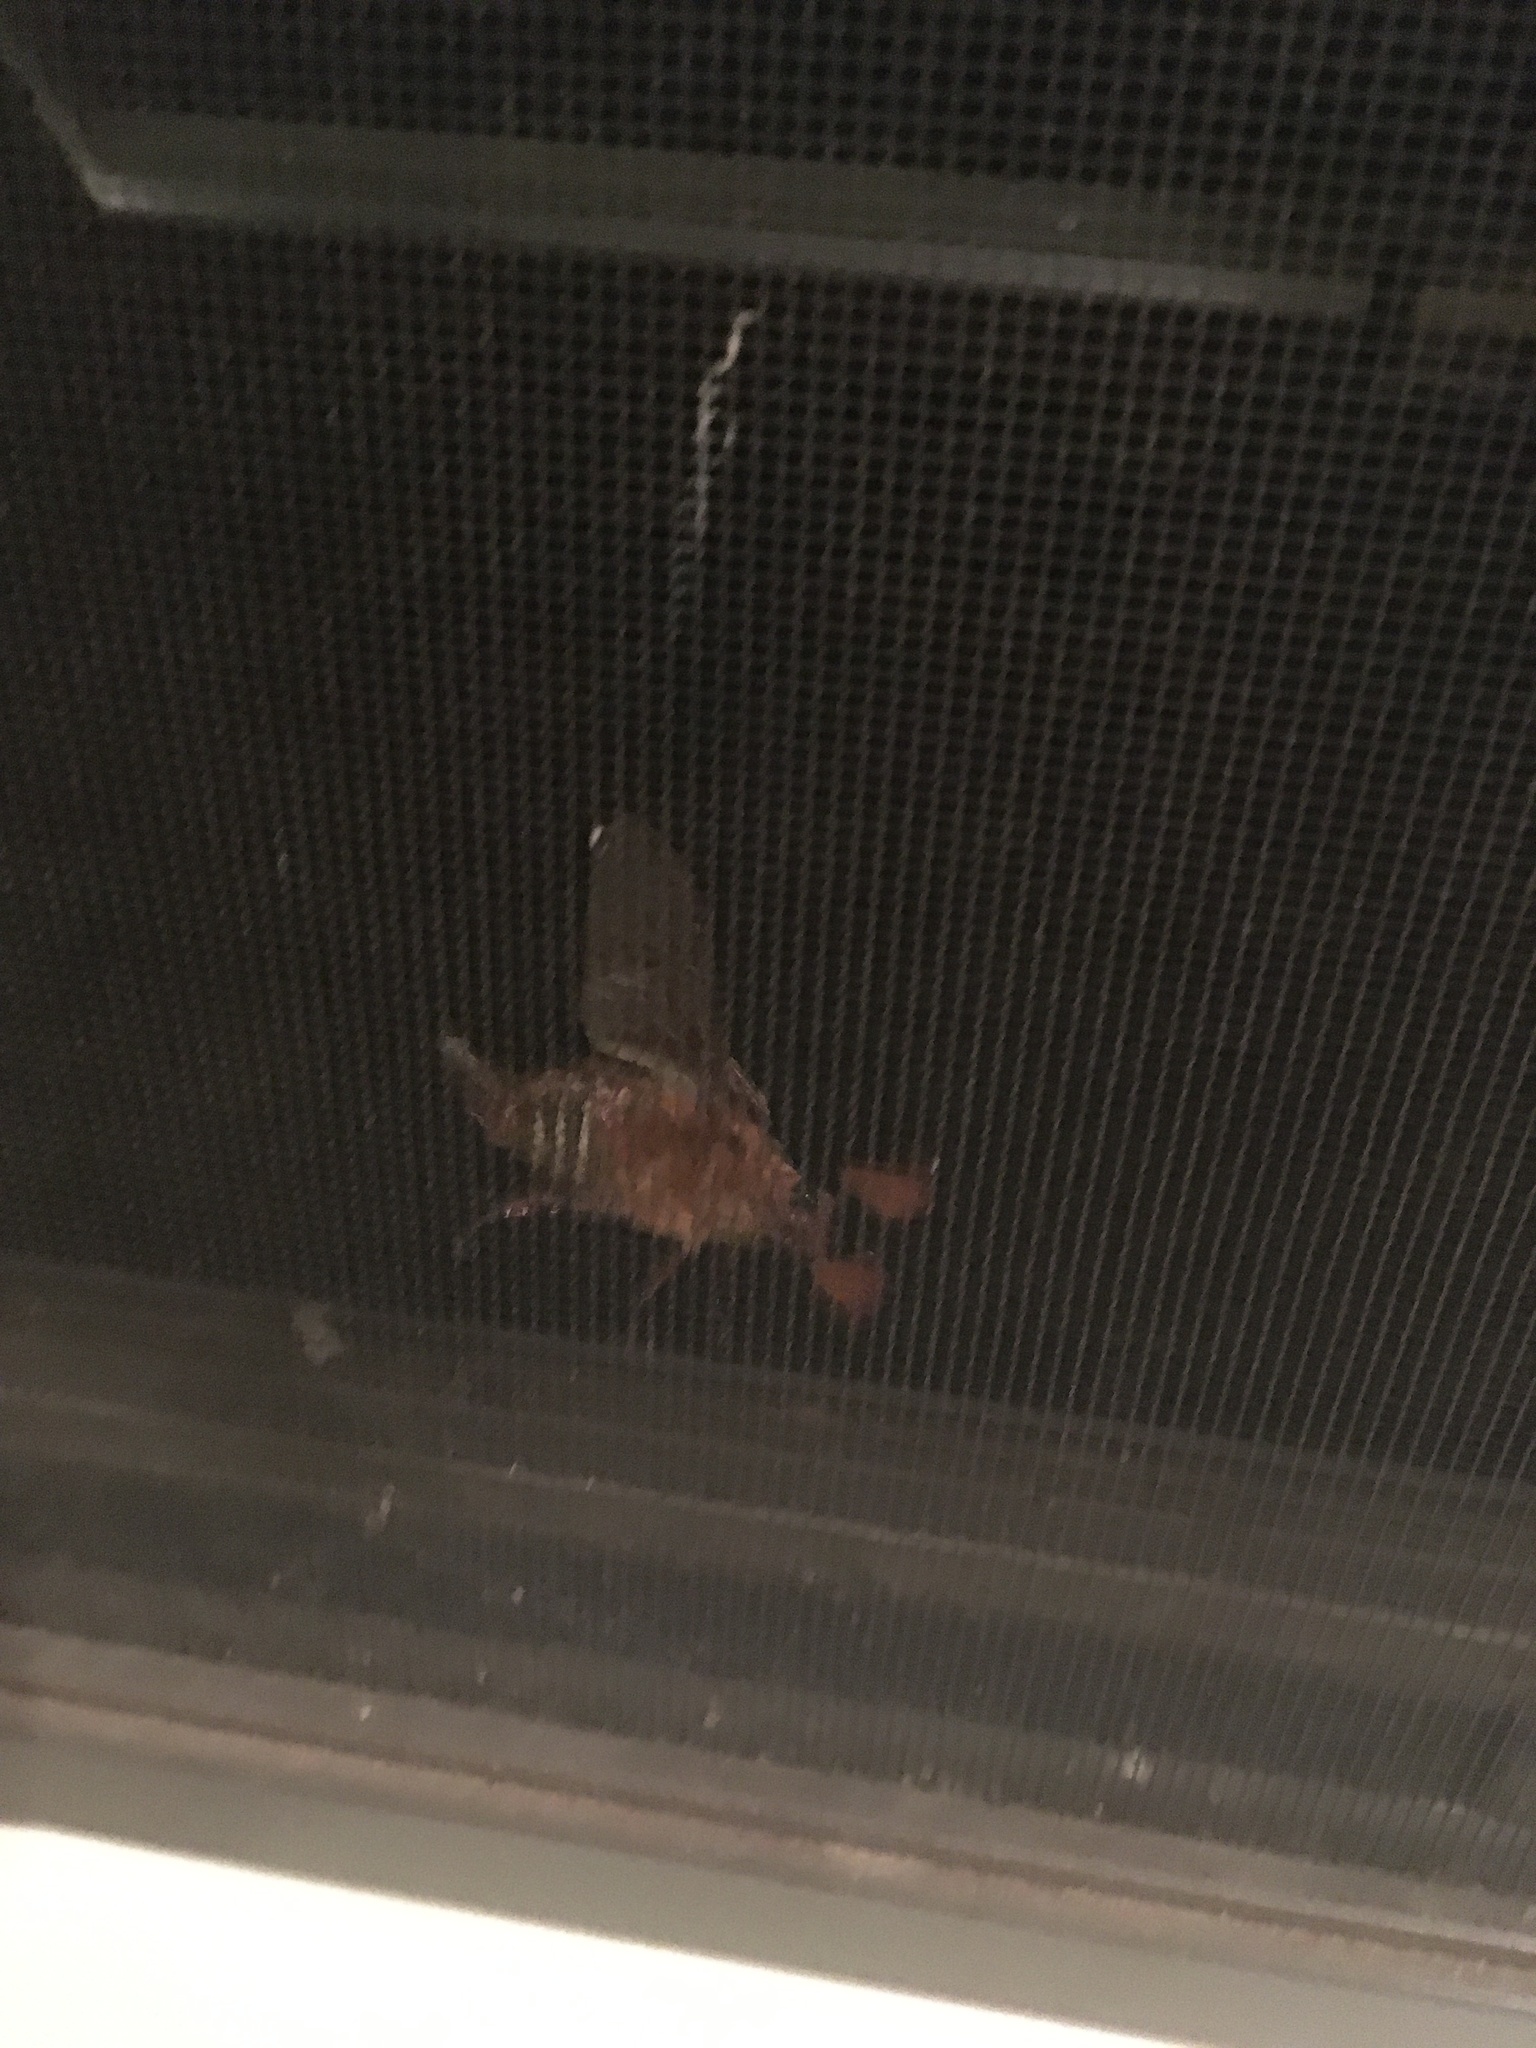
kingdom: Animalia
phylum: Arthropoda
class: Insecta
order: Coleoptera
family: Scarabaeidae
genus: Polyphylla
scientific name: Polyphylla crinita
